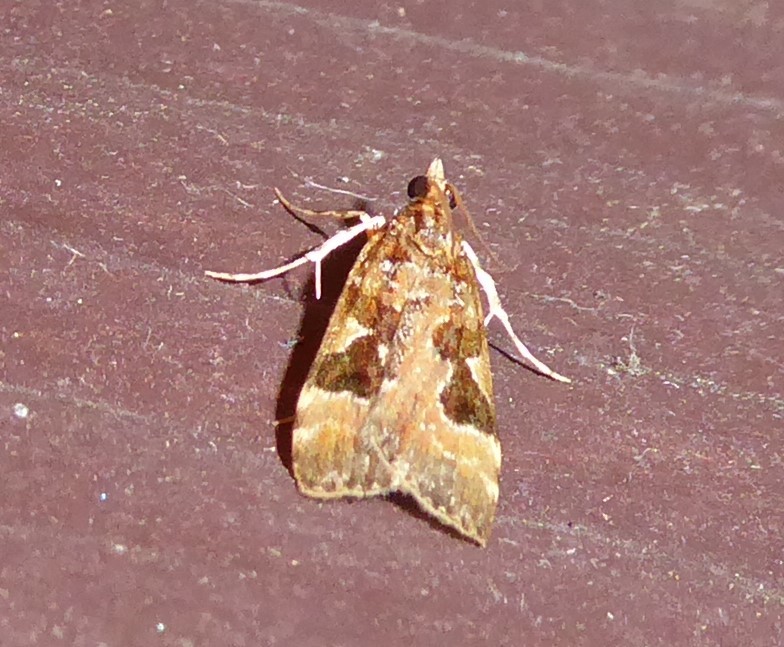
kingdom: Animalia
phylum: Arthropoda
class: Insecta
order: Lepidoptera
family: Crambidae
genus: Scoparia
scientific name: Scoparia ustimacula
